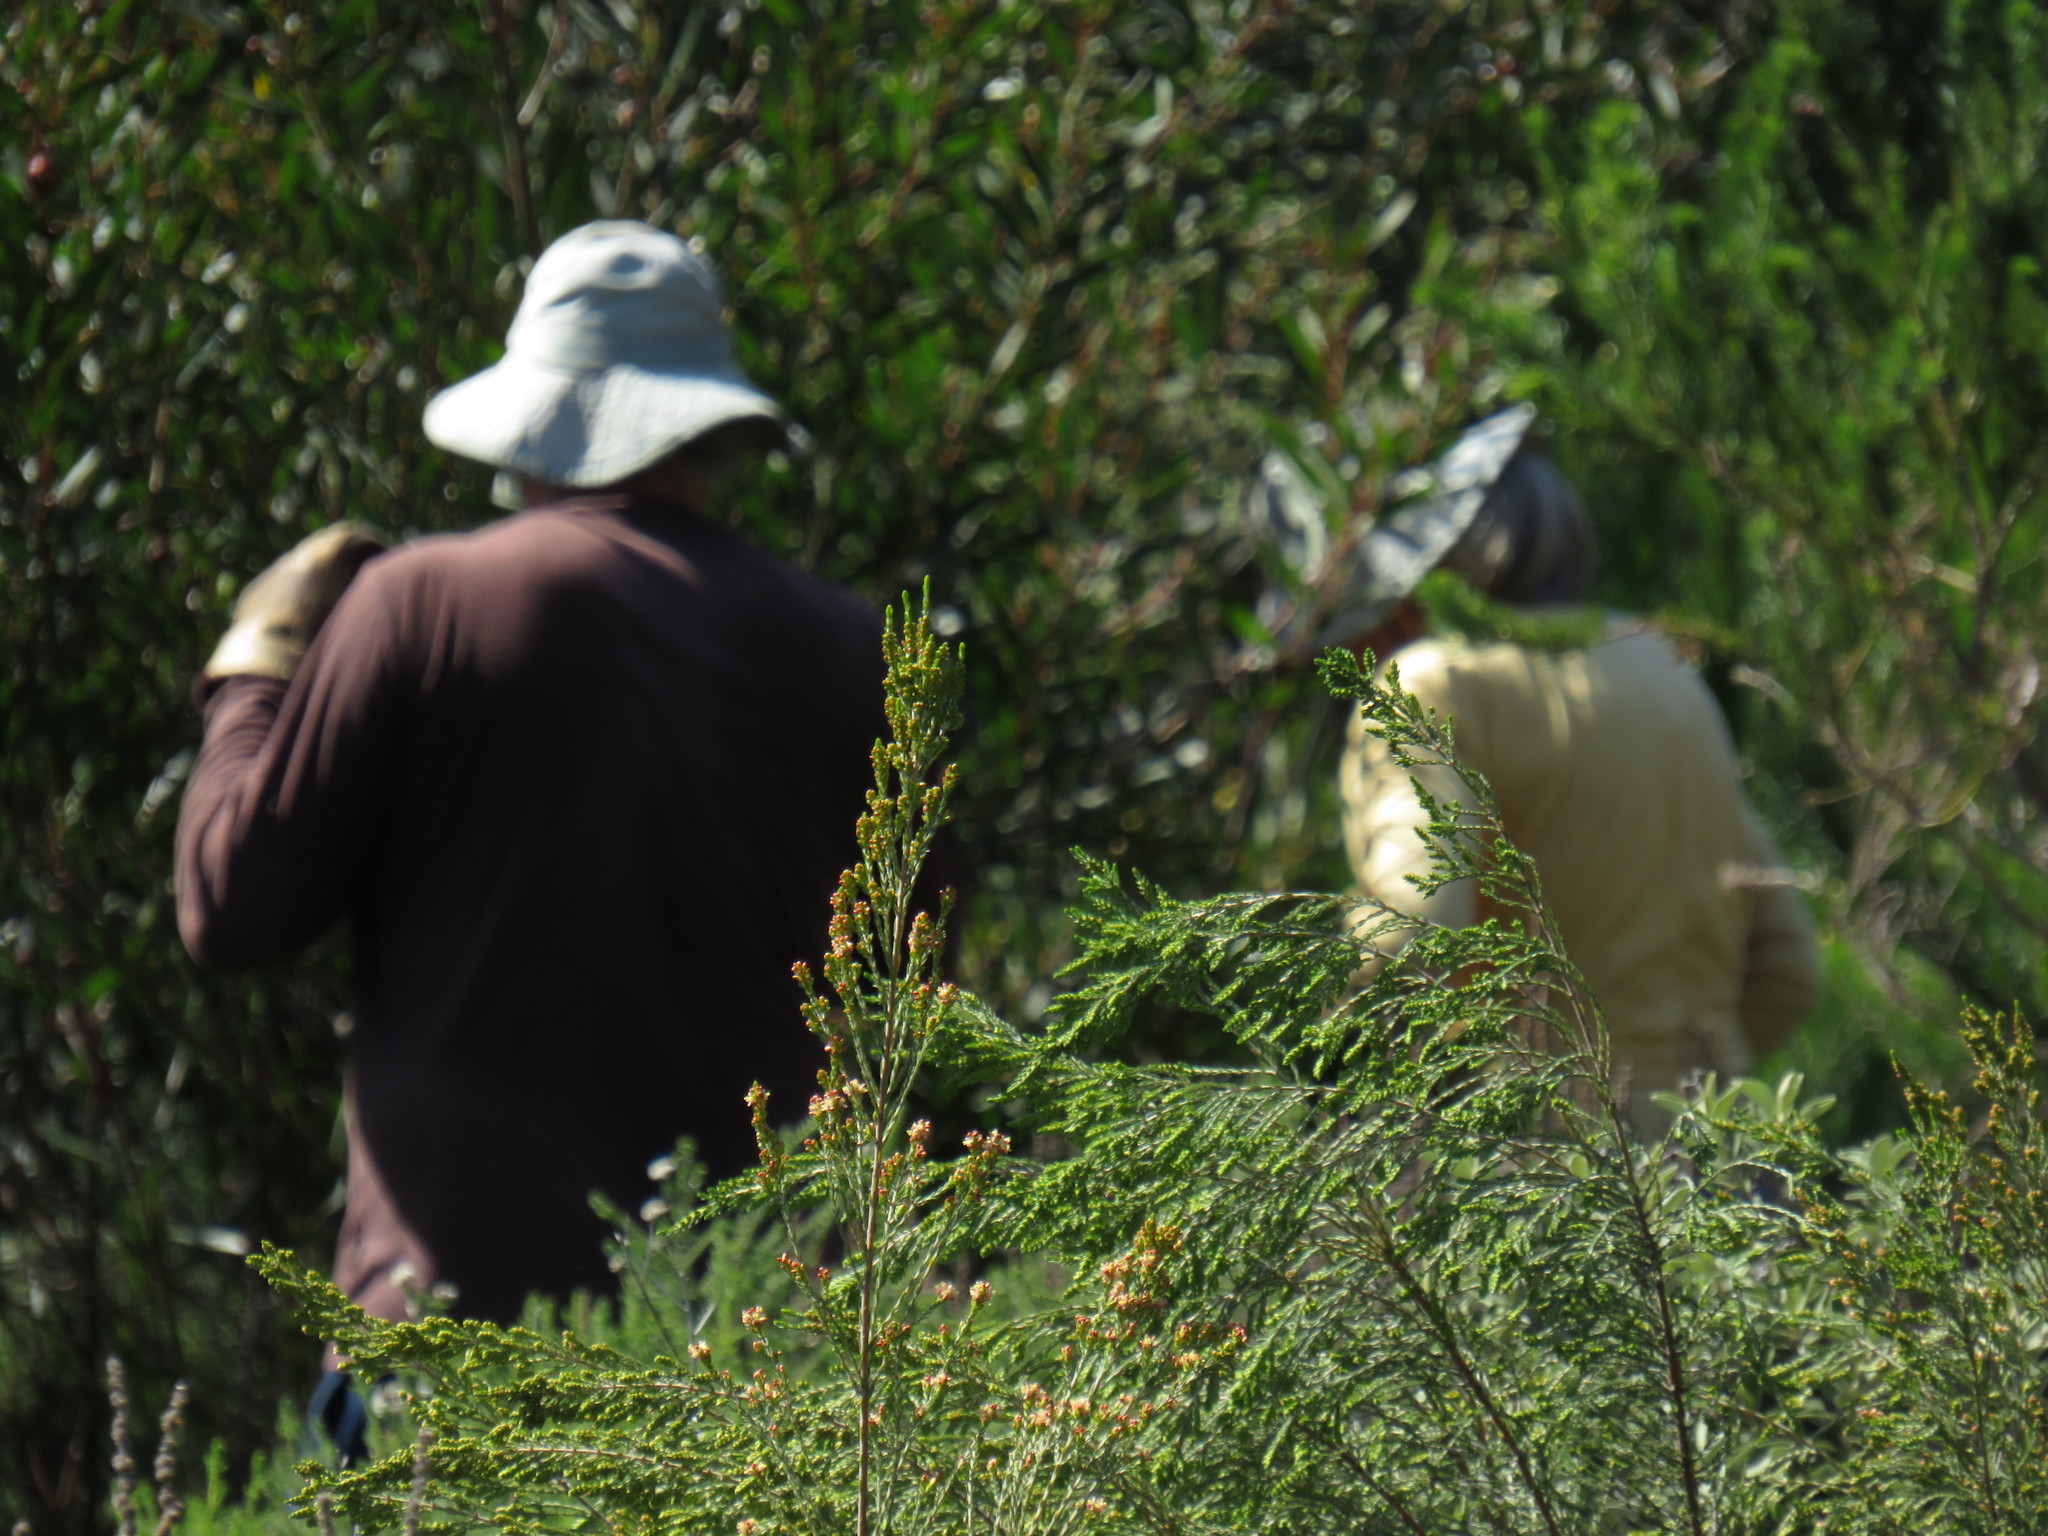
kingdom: Plantae
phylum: Tracheophyta
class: Magnoliopsida
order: Malvales
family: Thymelaeaceae
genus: Passerina
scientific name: Passerina corymbosa
